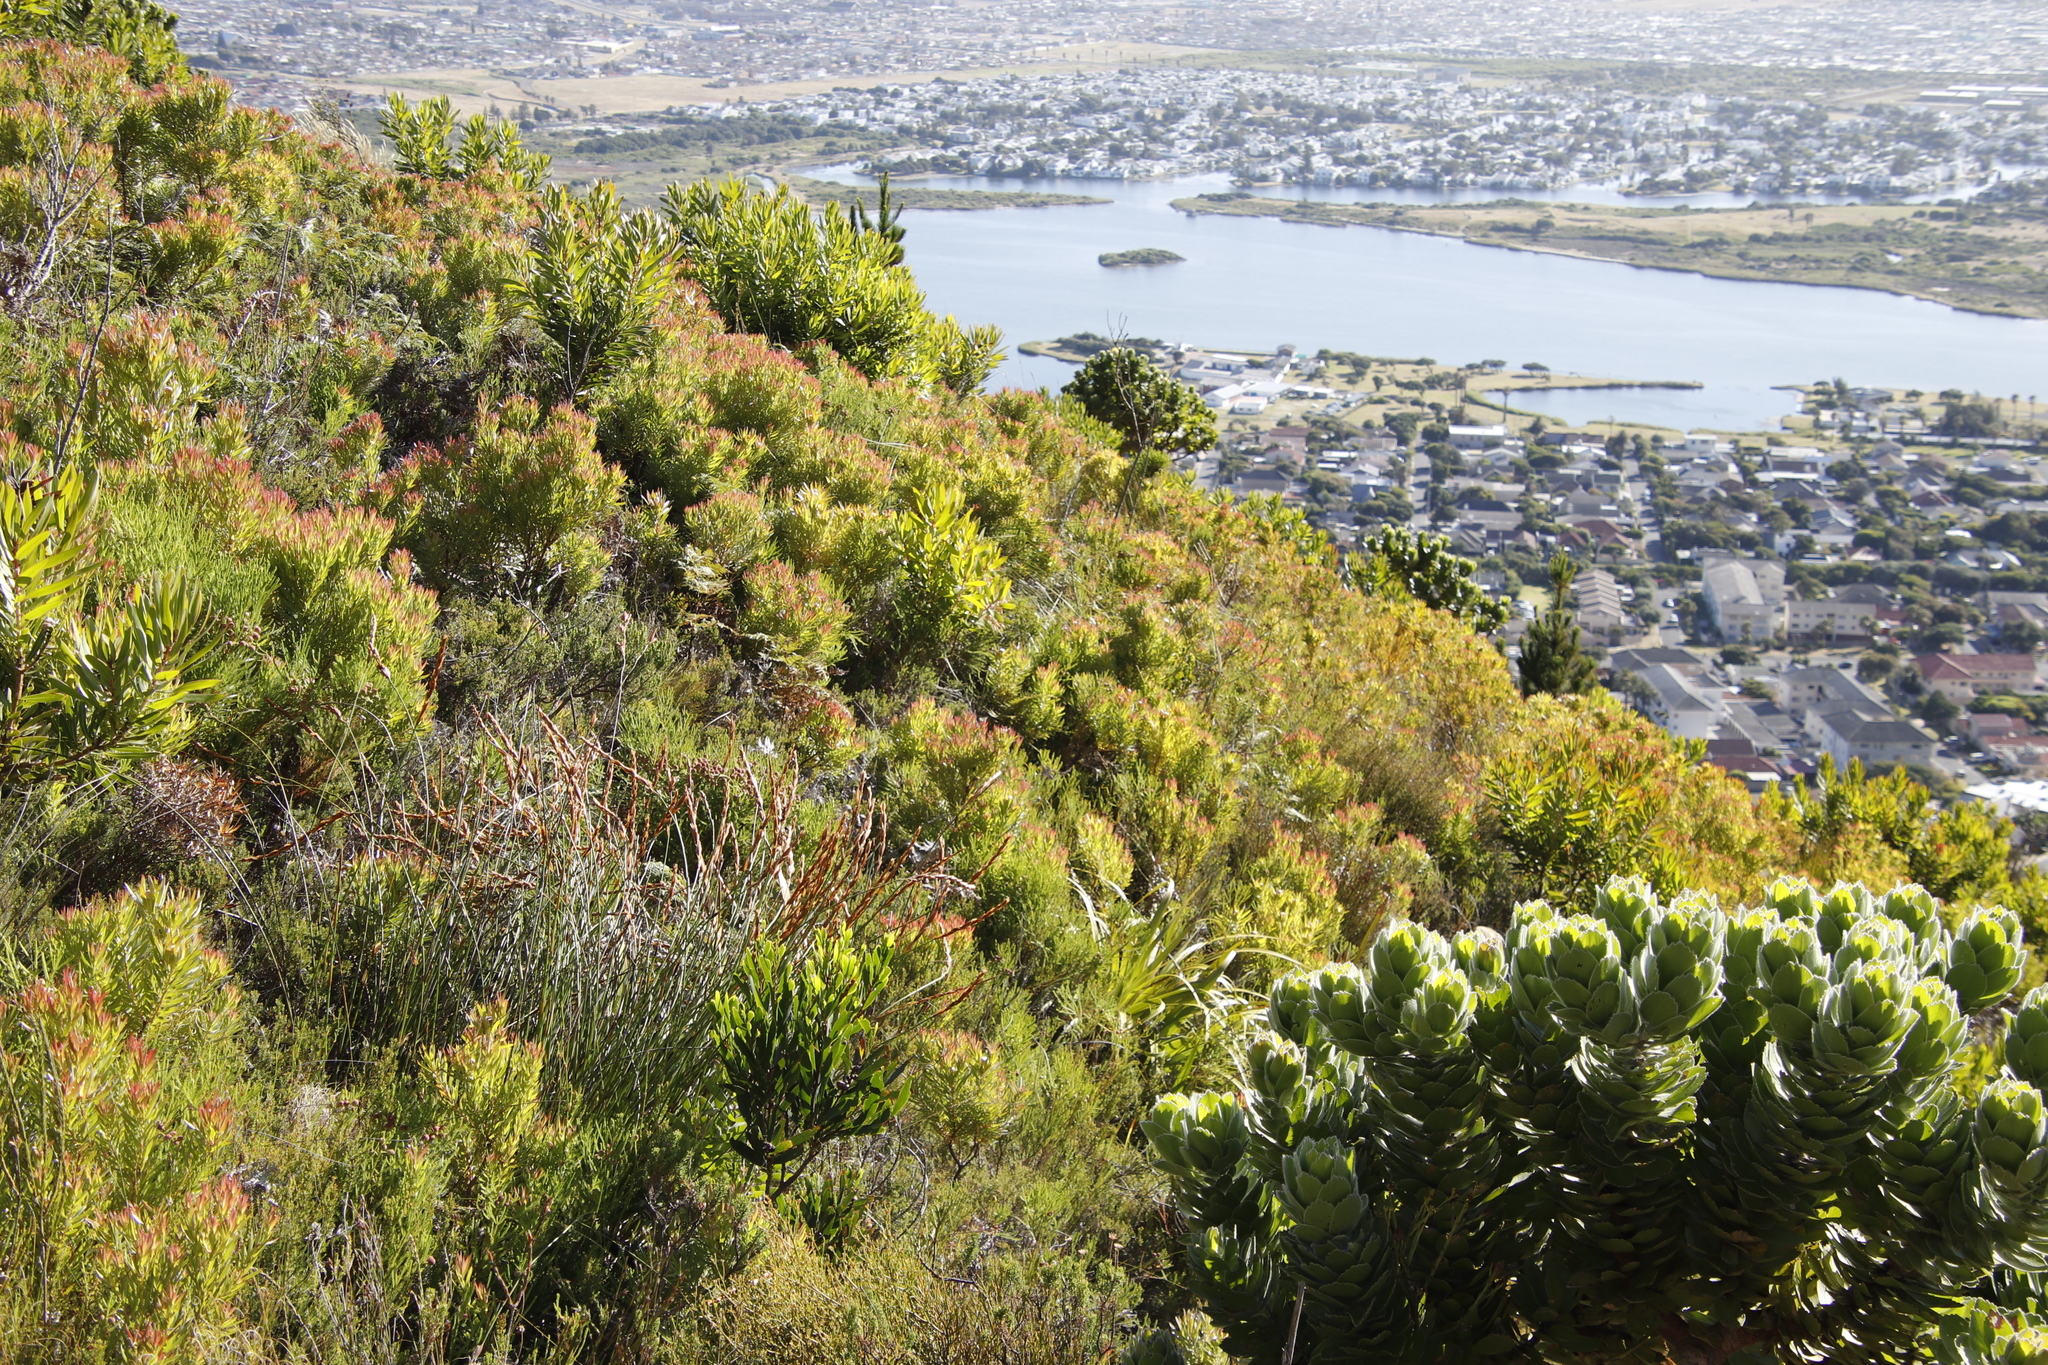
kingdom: Plantae
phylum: Tracheophyta
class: Magnoliopsida
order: Proteales
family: Proteaceae
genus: Leucadendron
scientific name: Leucadendron xanthoconus
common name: Sickle-leaf conebush
